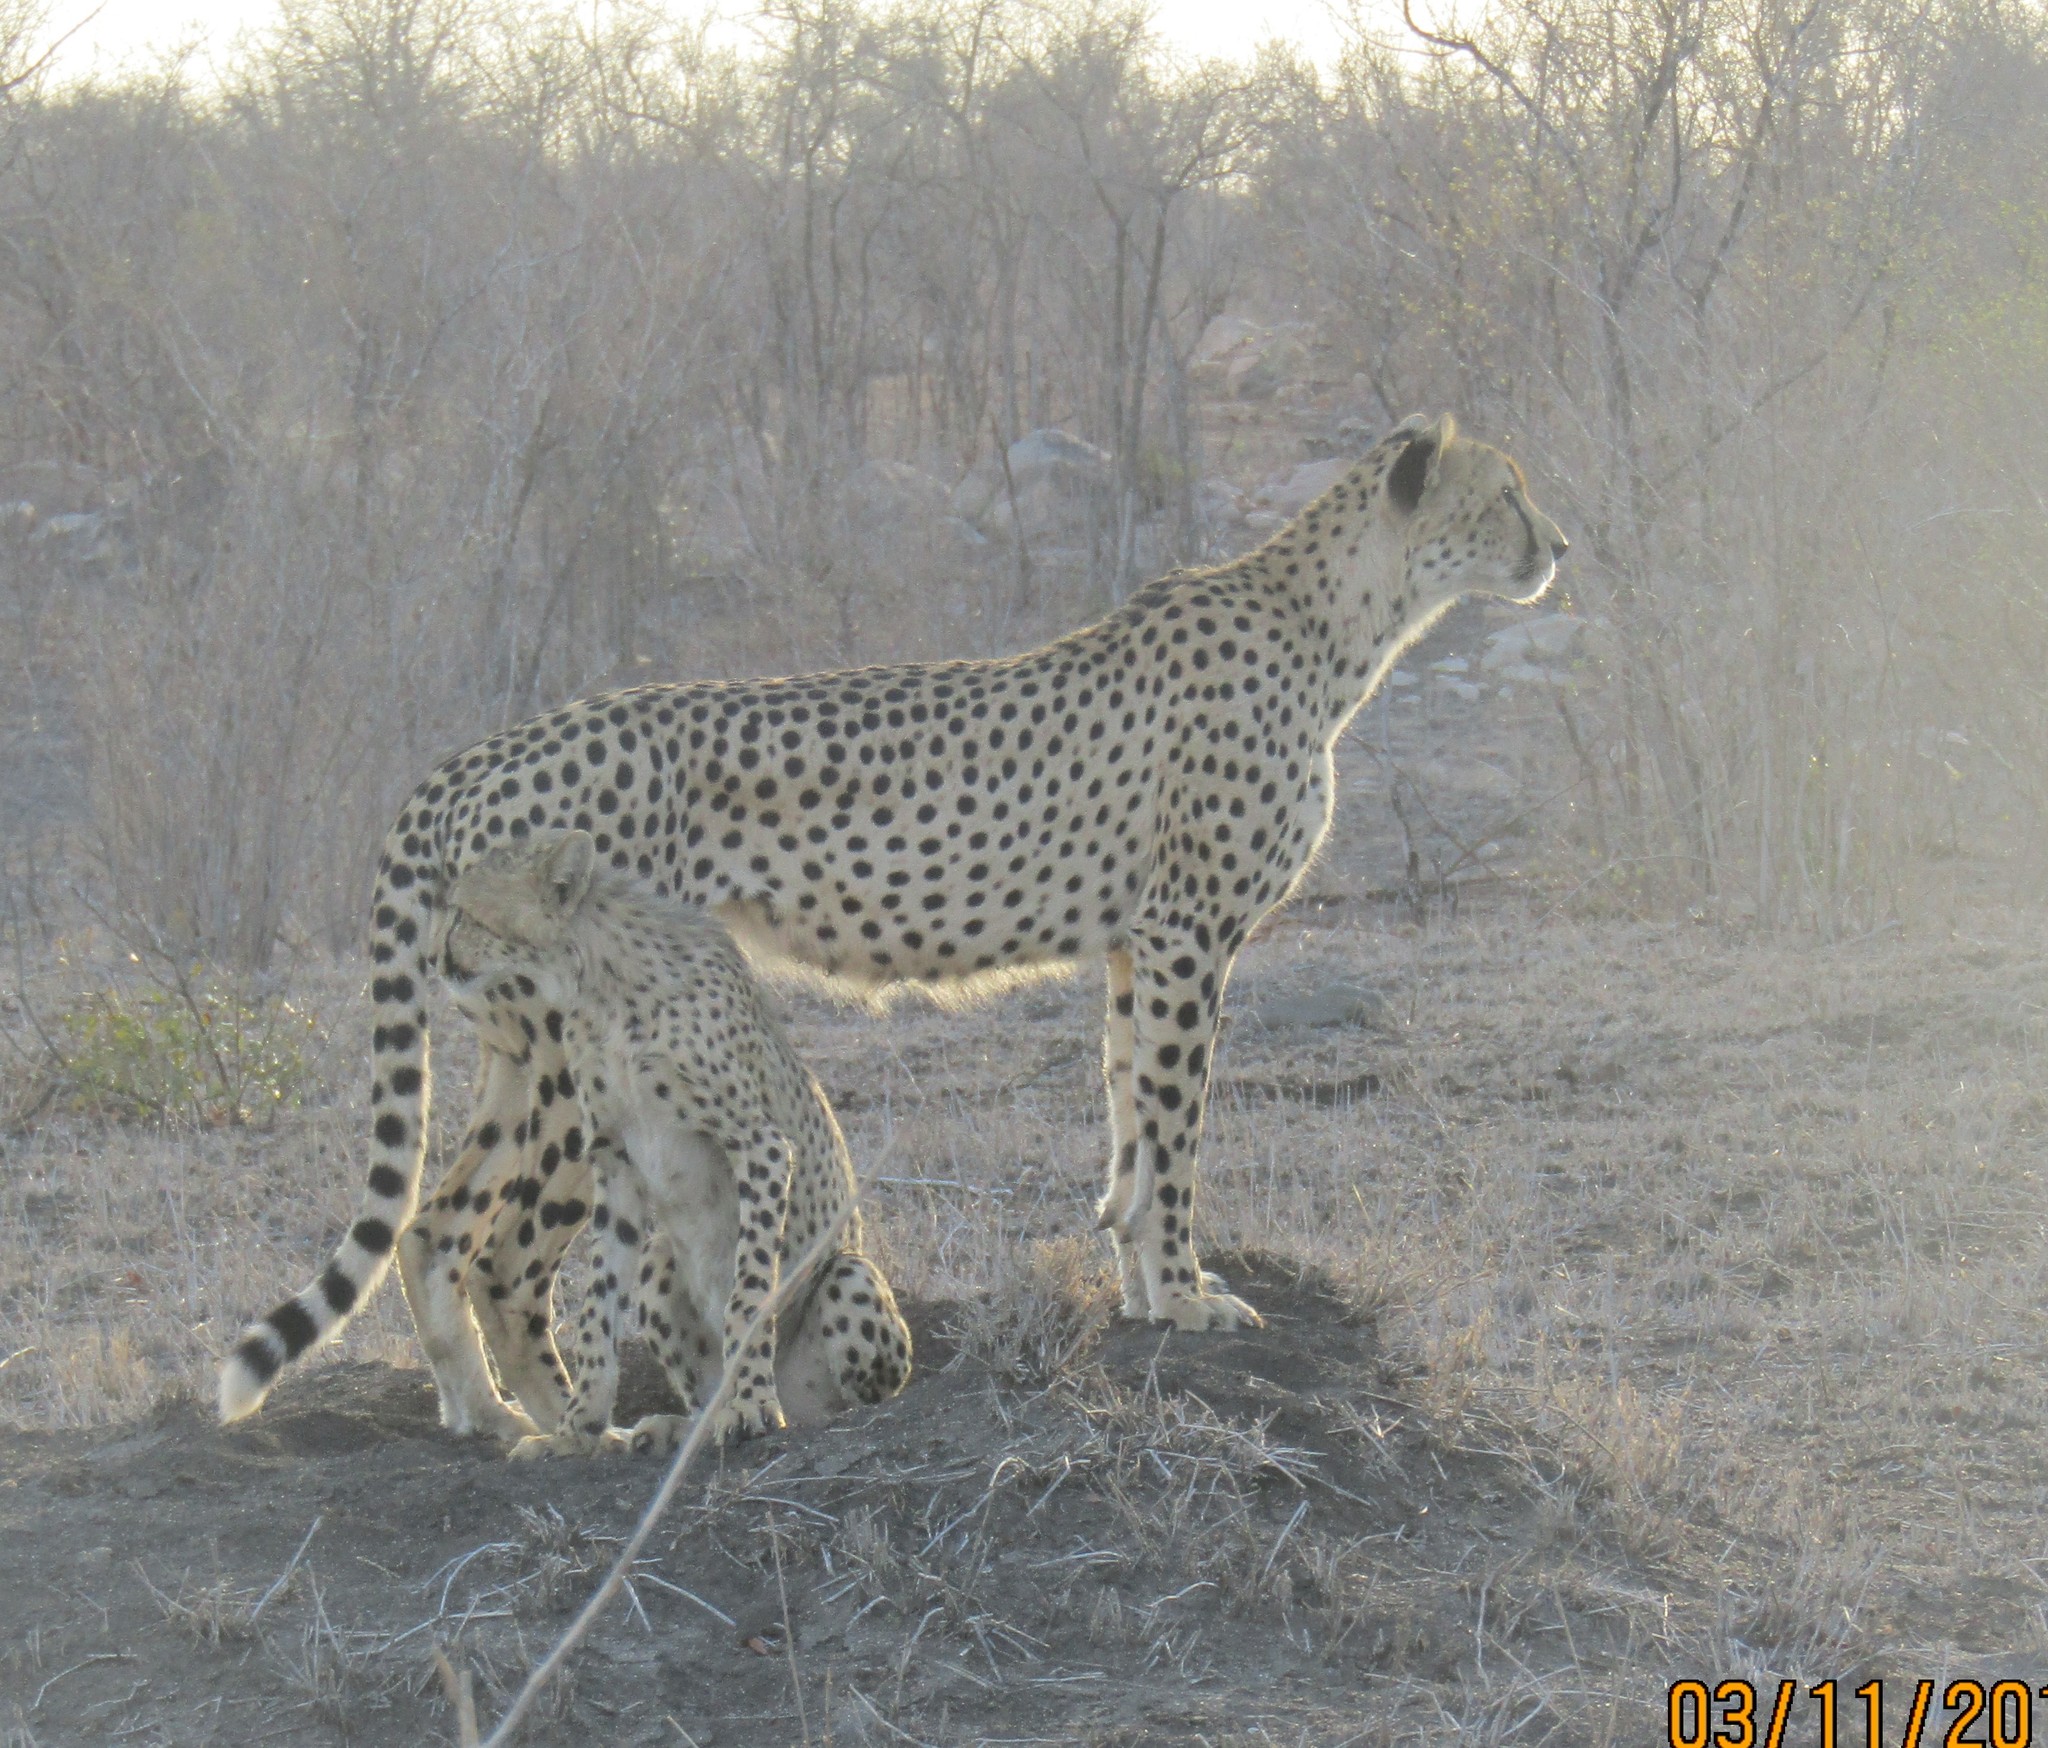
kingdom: Animalia
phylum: Chordata
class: Mammalia
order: Carnivora
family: Felidae
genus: Acinonyx
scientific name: Acinonyx jubatus
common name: Cheetah
